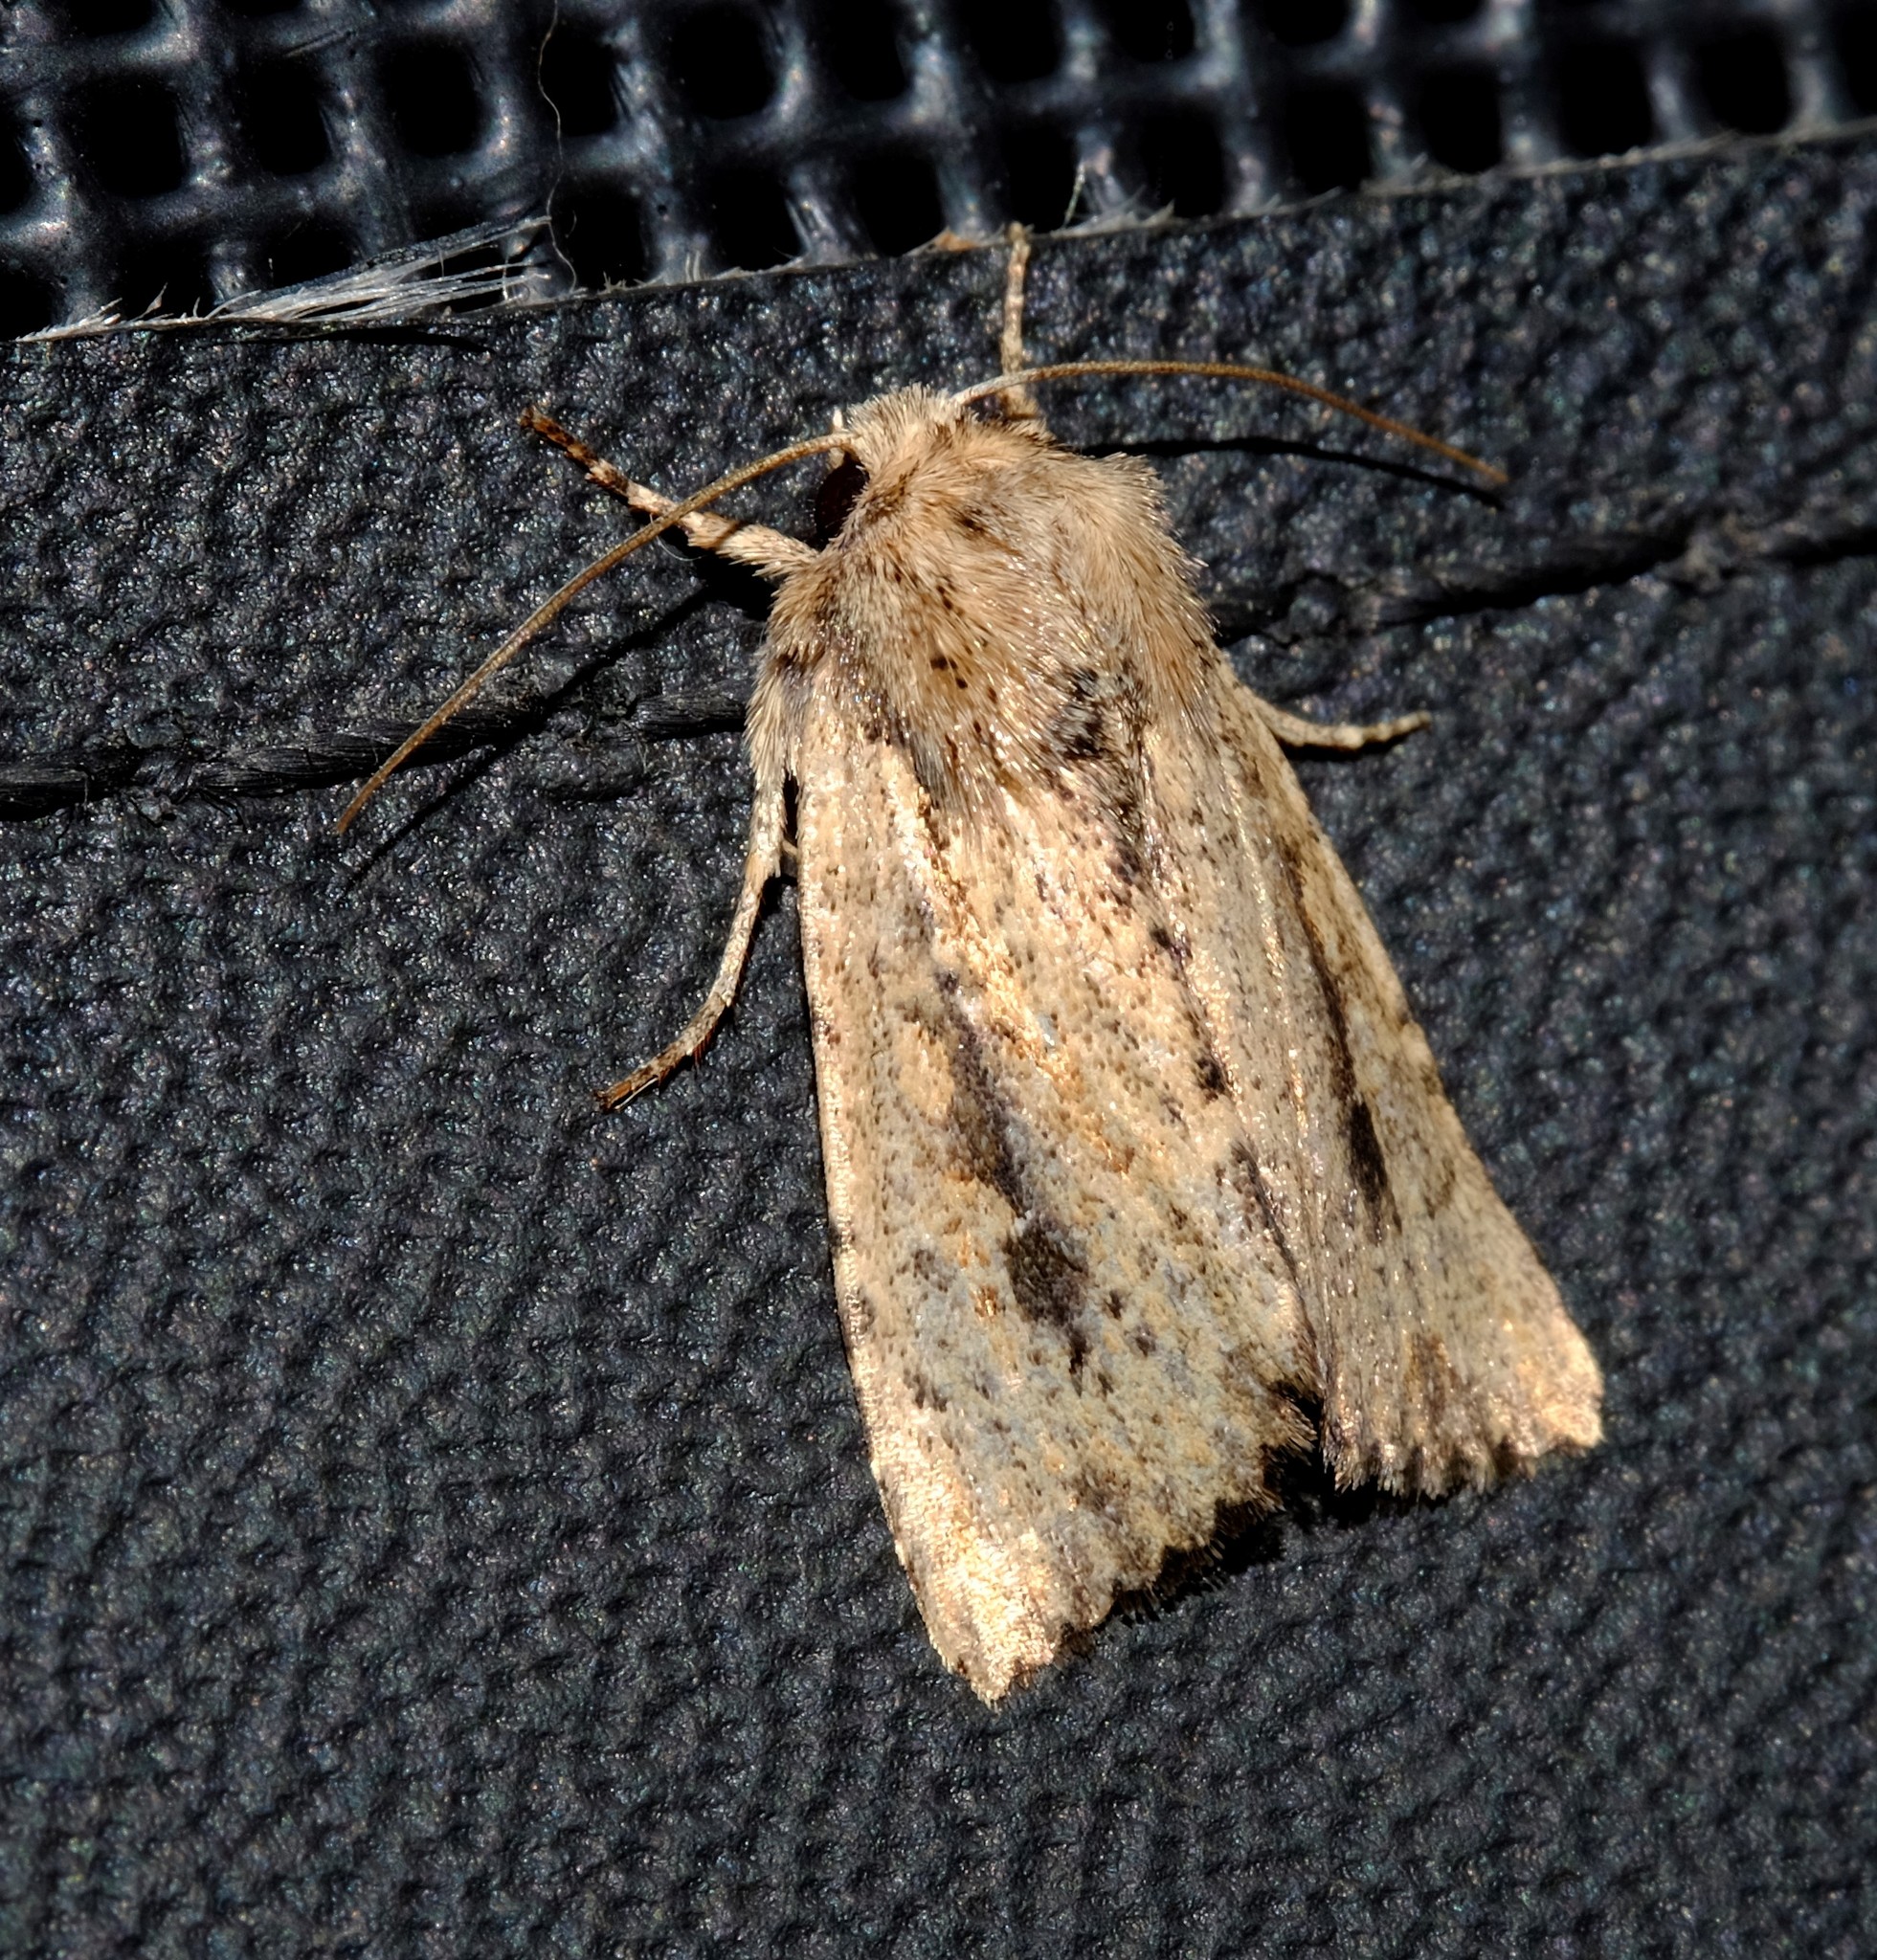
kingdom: Animalia
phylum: Arthropoda
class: Insecta
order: Lepidoptera
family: Noctuidae
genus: Leucania
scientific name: Leucania obumbrata
